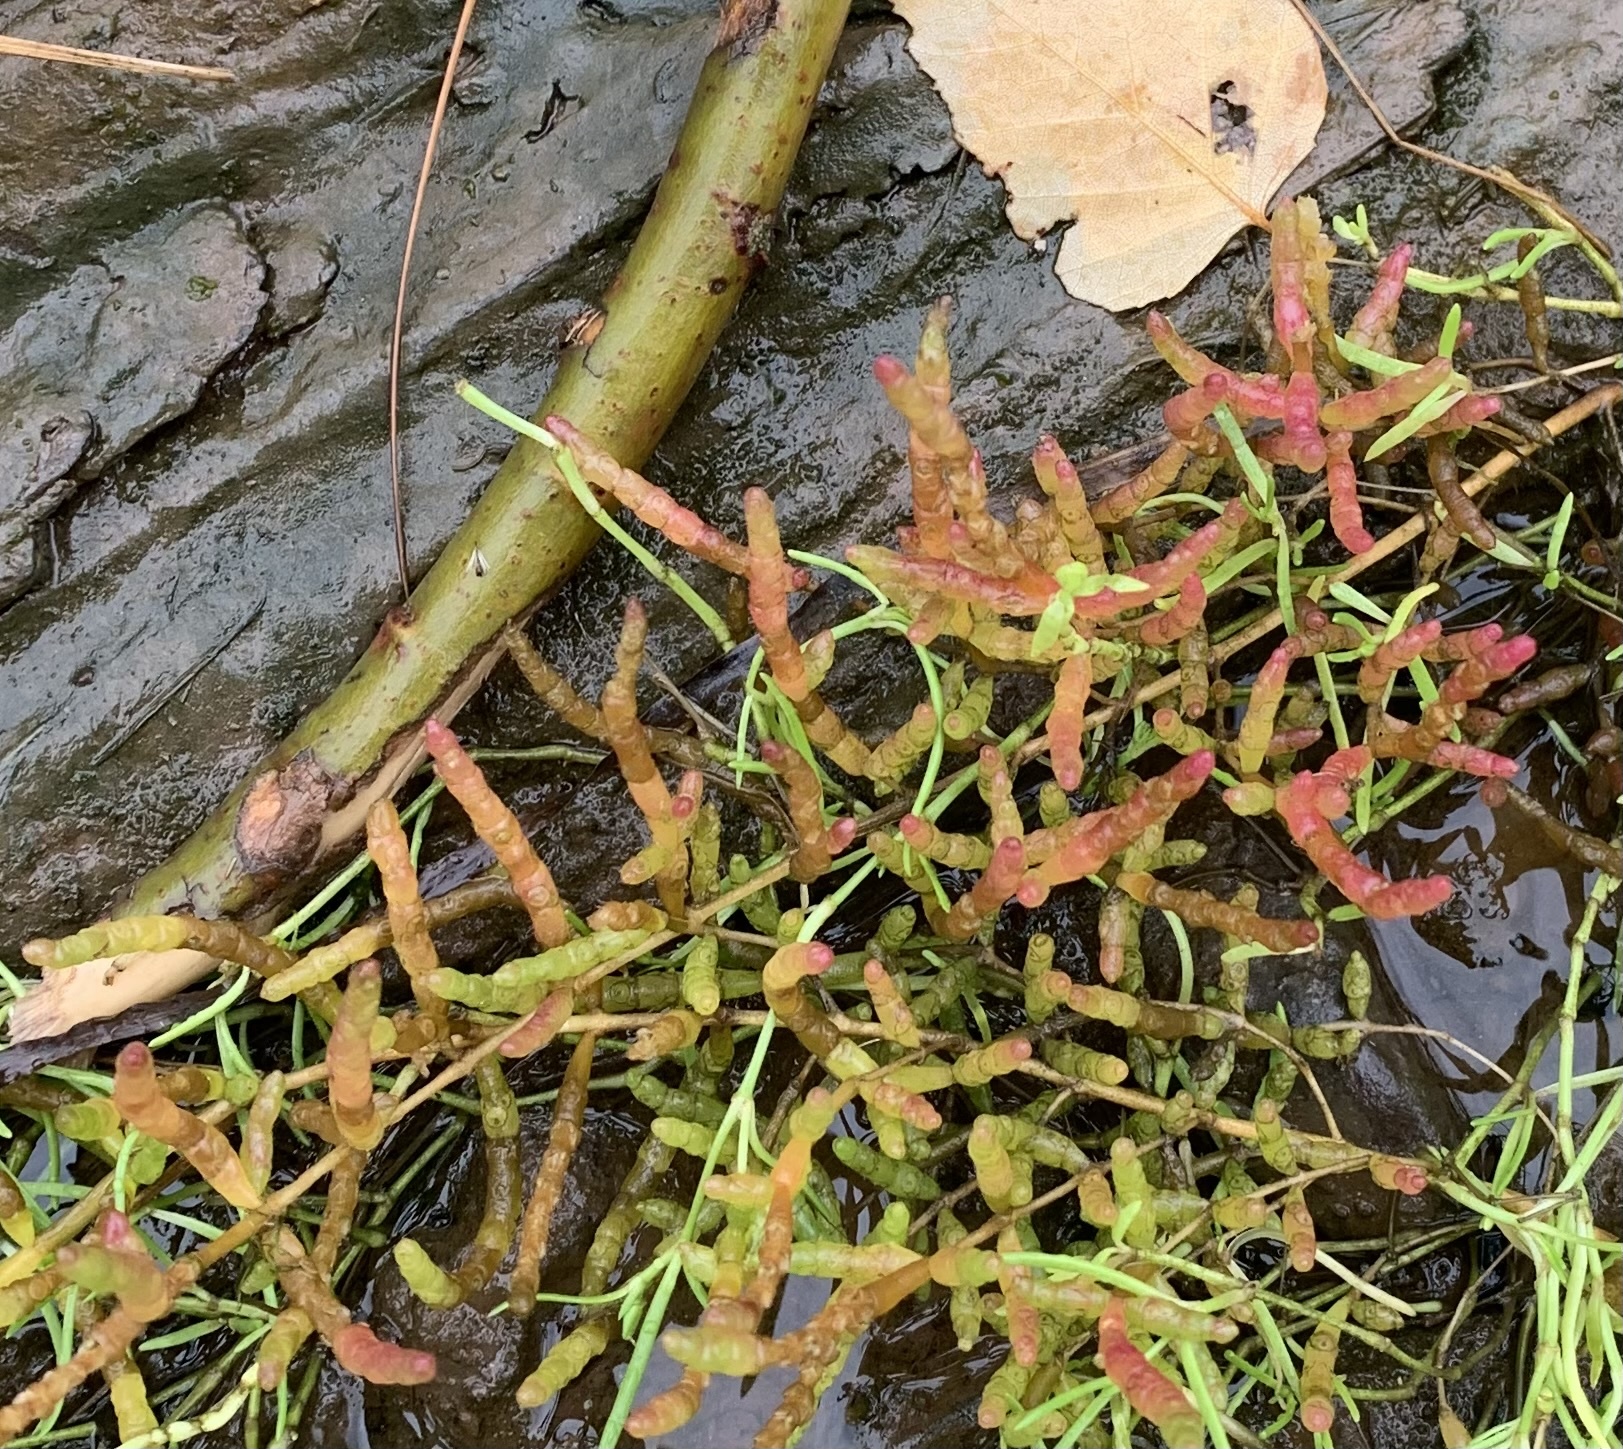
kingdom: Plantae
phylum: Tracheophyta
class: Magnoliopsida
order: Caryophyllales
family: Amaranthaceae
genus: Salicornia
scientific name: Salicornia maritima
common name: Jointed glasswort
